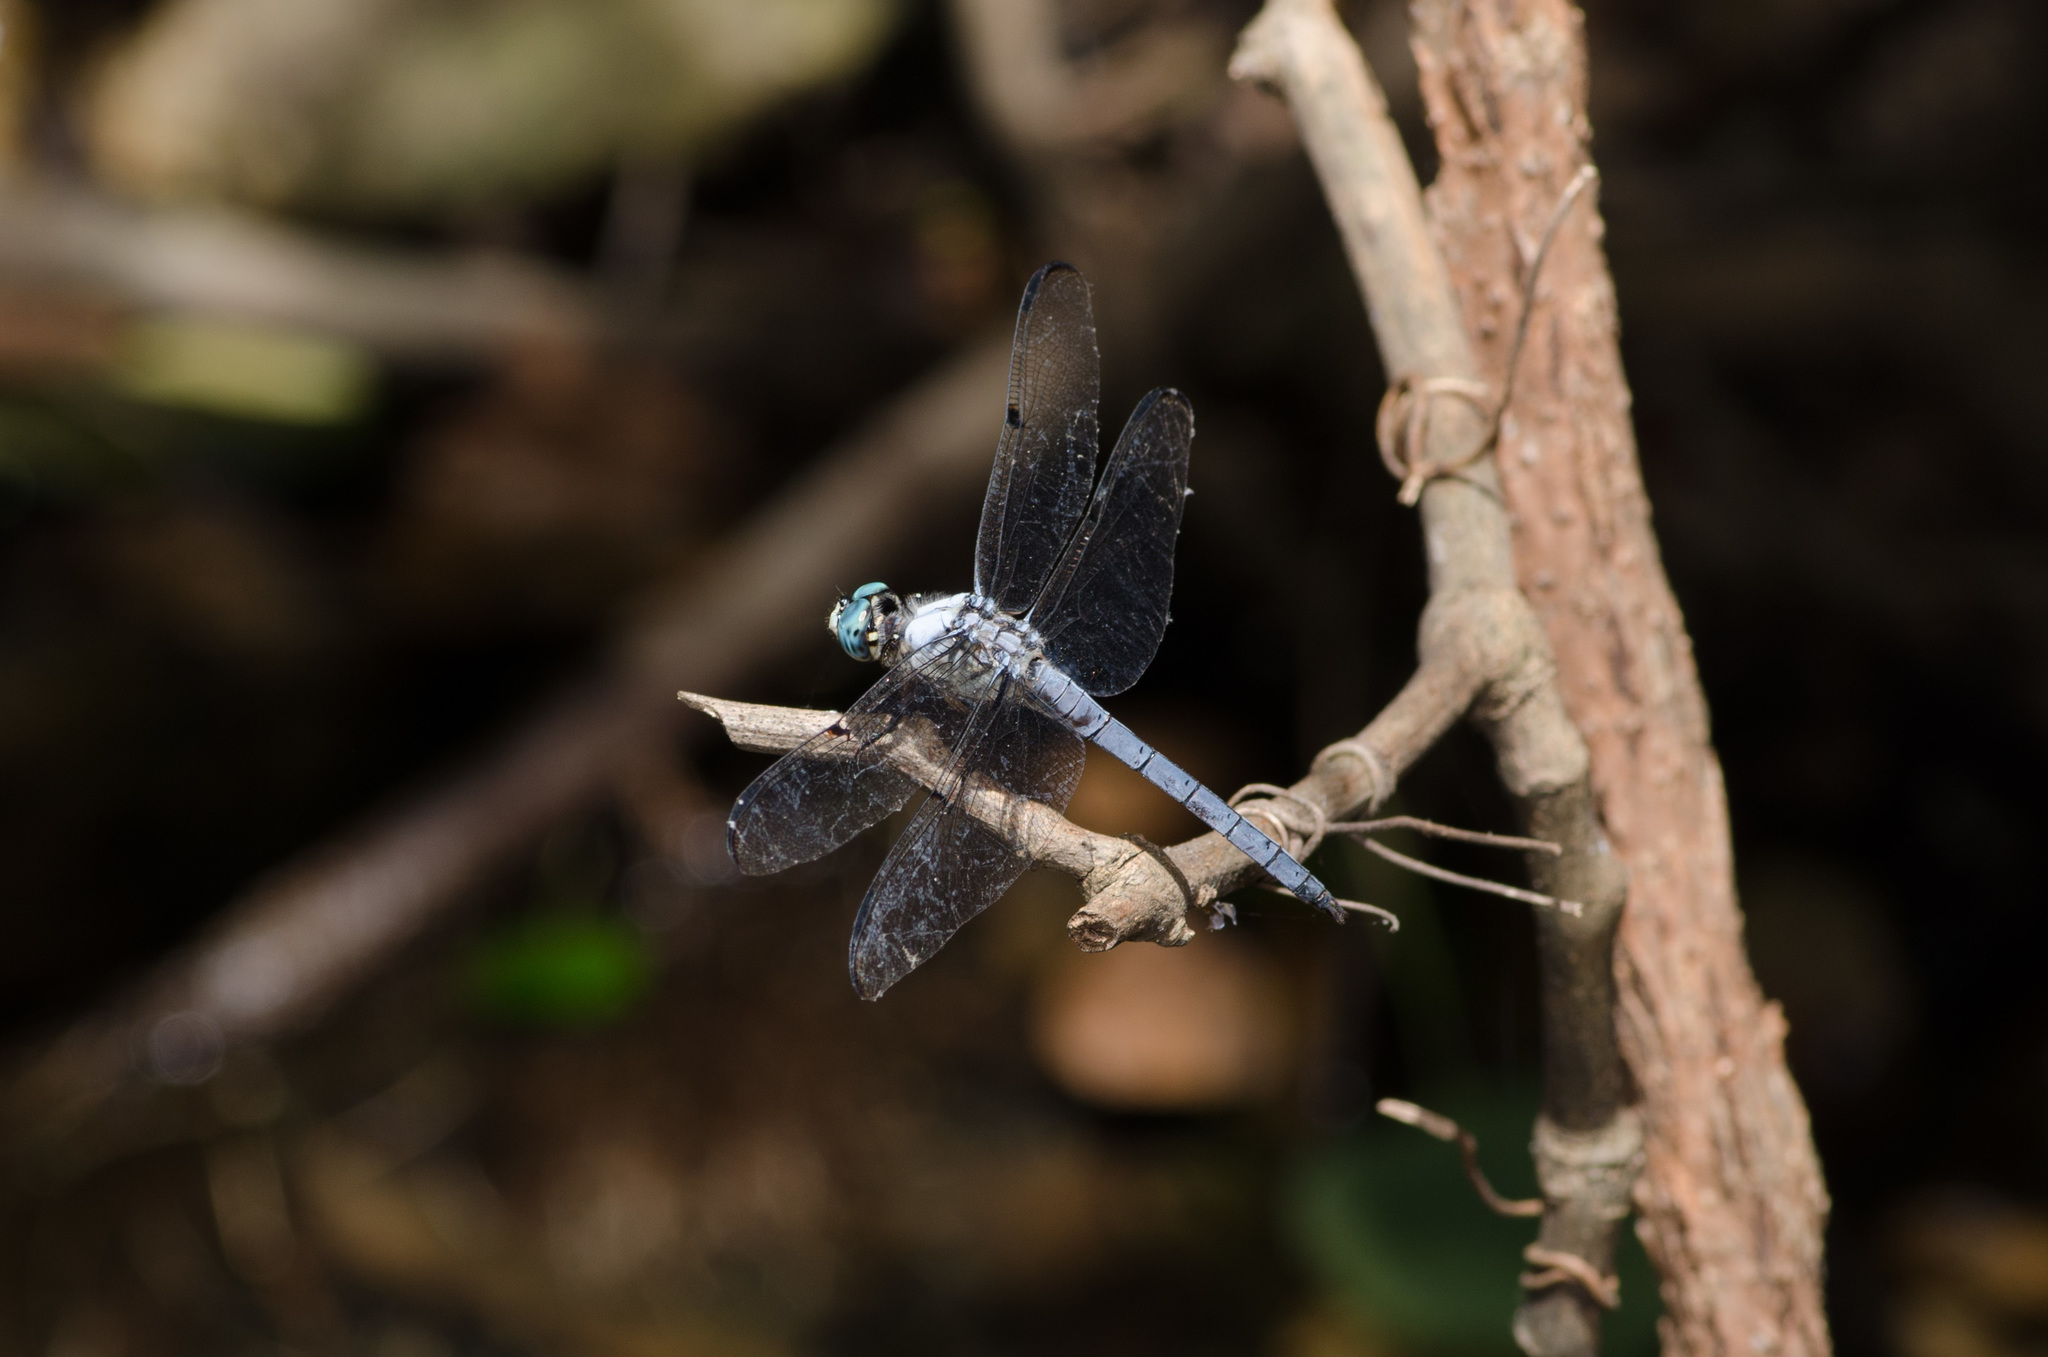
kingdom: Animalia
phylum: Arthropoda
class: Insecta
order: Odonata
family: Libellulidae
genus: Libellula
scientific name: Libellula vibrans
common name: Great blue skimmer
